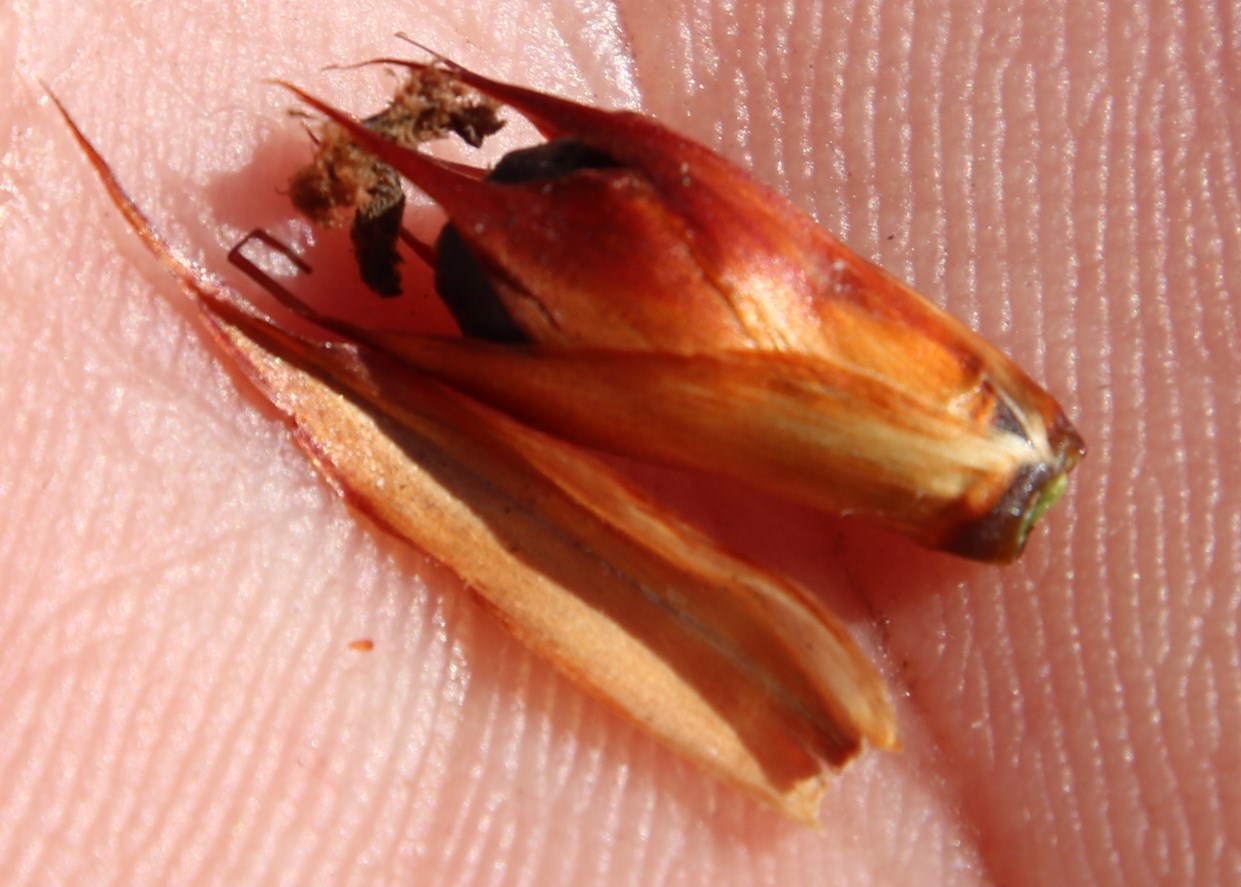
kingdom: Plantae
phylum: Tracheophyta
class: Liliopsida
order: Poales
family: Restionaceae
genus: Willdenowia
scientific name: Willdenowia glomerata
